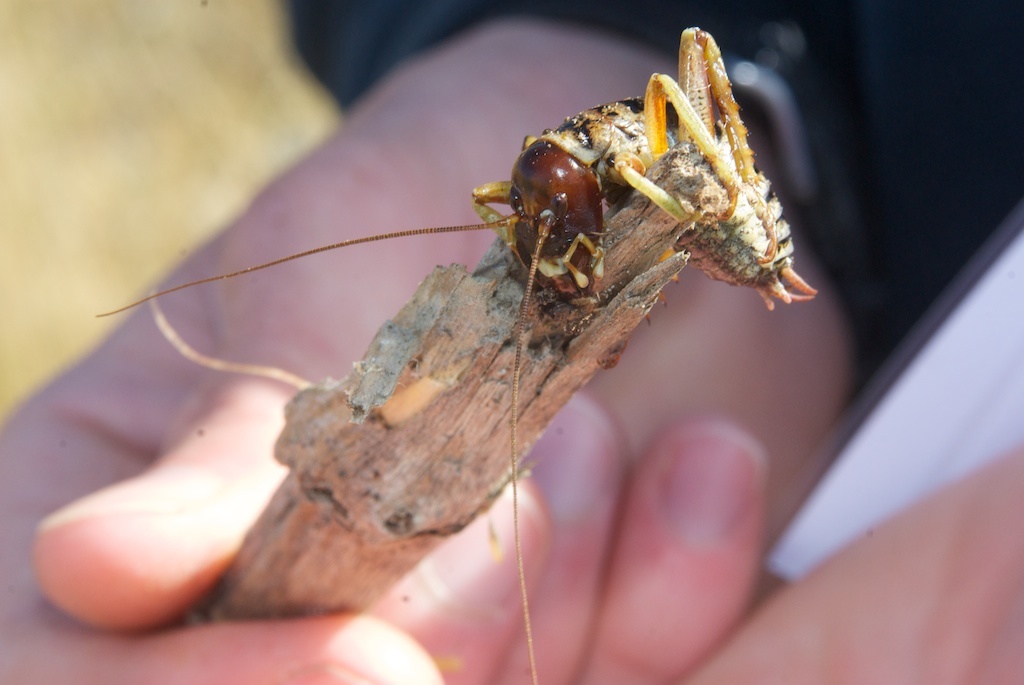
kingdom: Animalia
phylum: Arthropoda
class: Insecta
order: Orthoptera
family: Anostostomatidae
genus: Hemideina
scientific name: Hemideina maori
